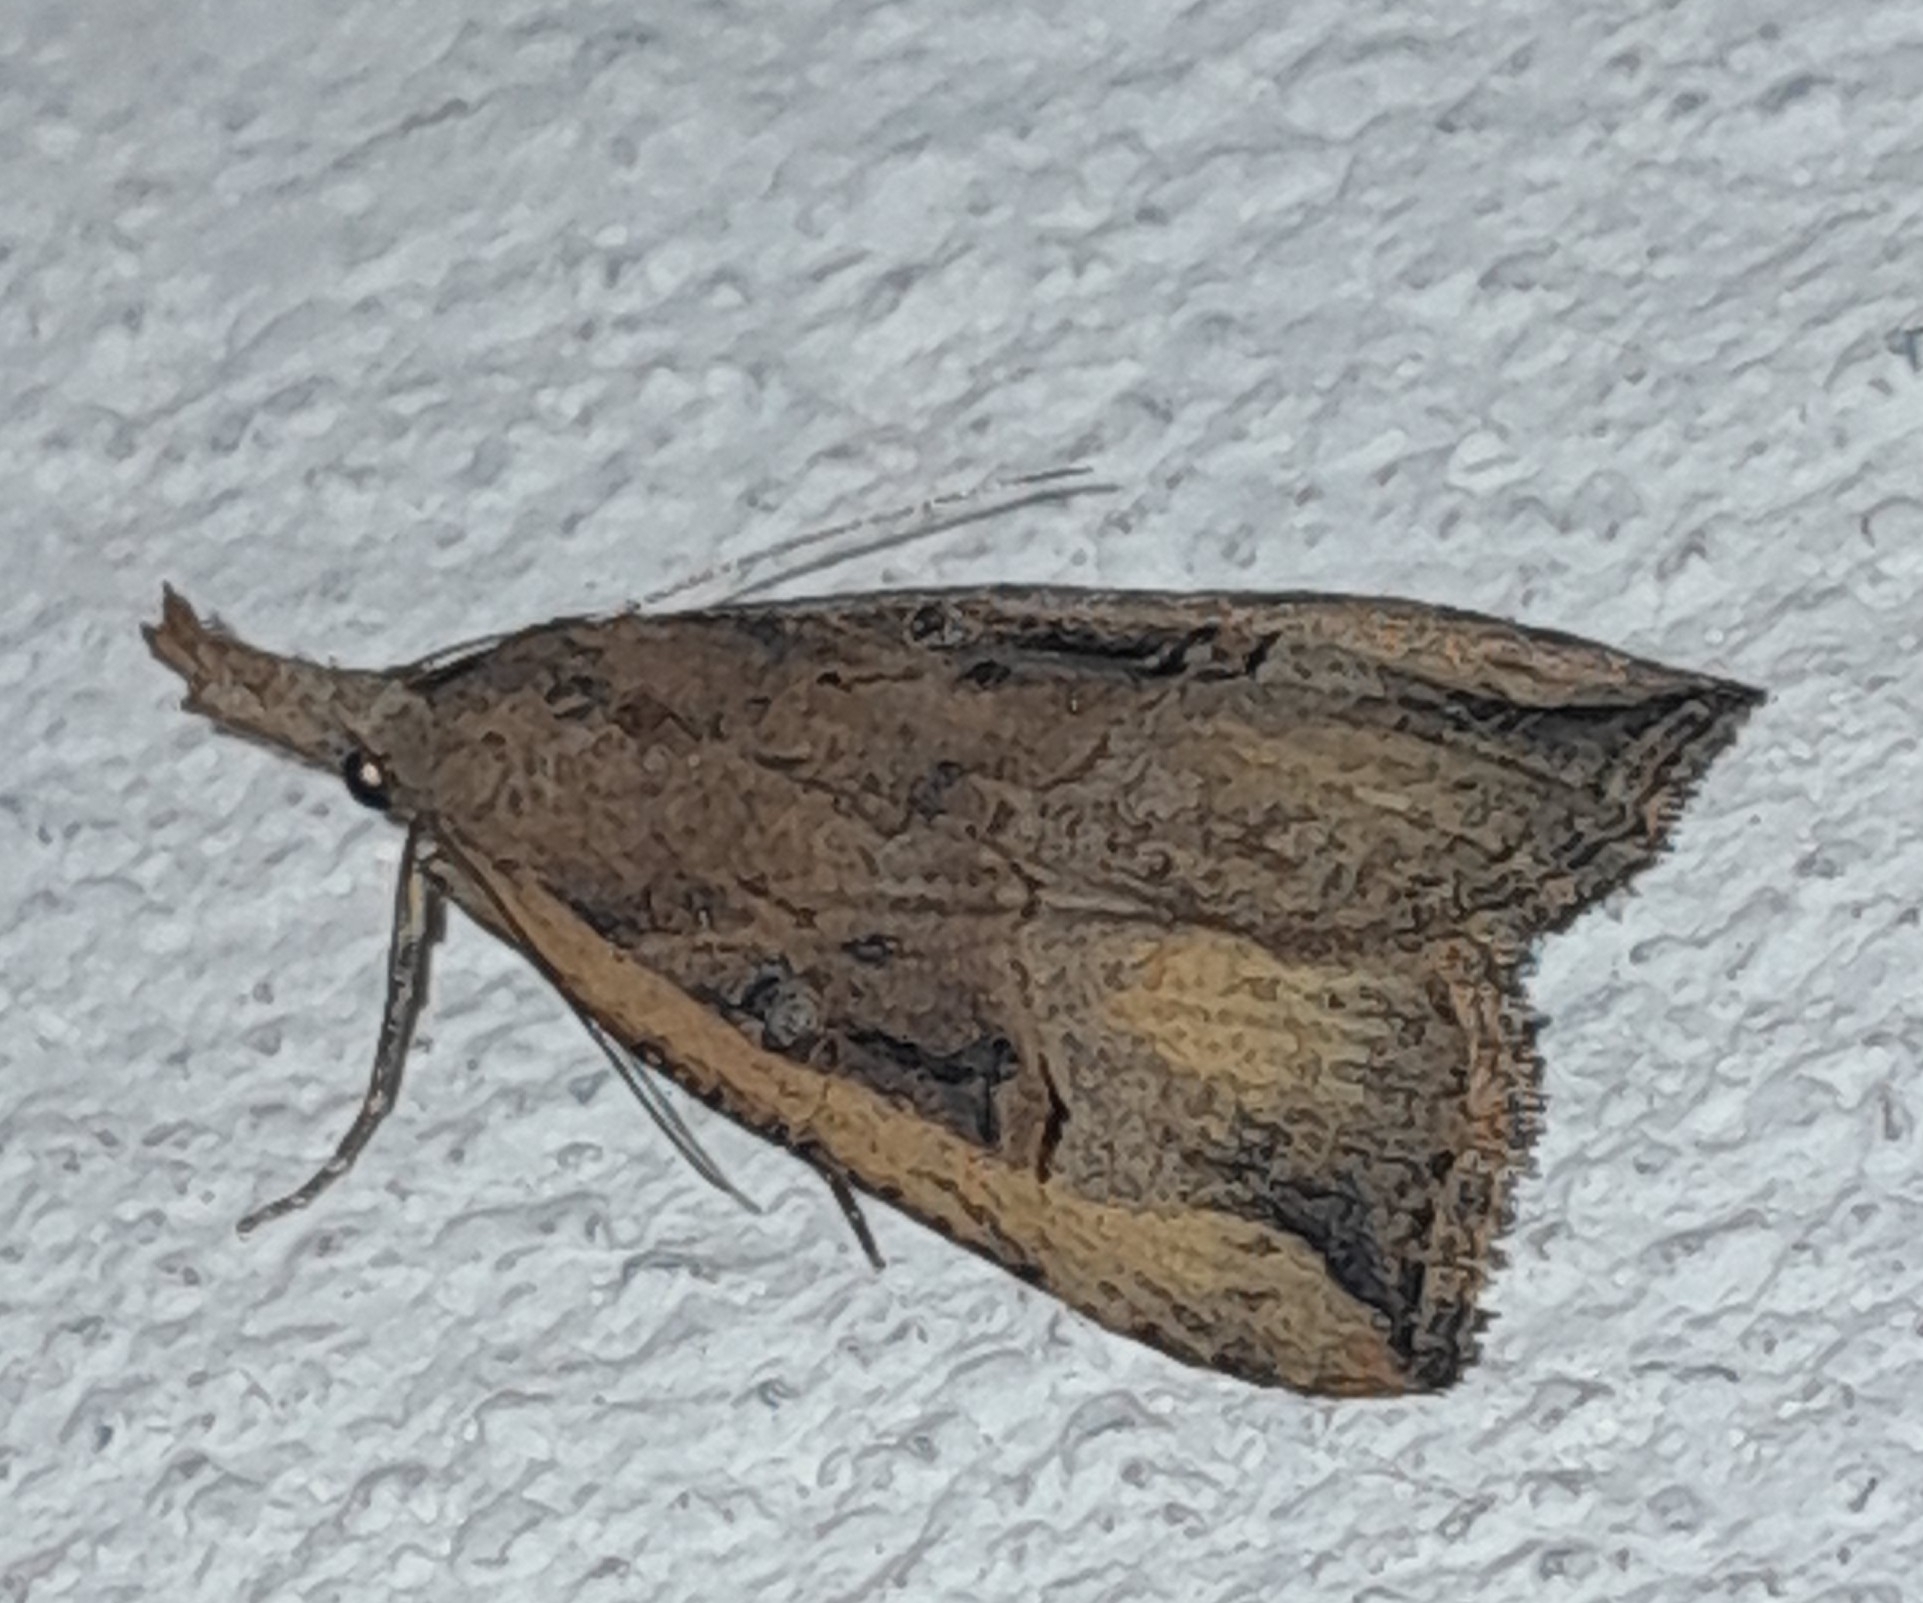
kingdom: Animalia
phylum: Arthropoda
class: Insecta
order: Lepidoptera
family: Erebidae
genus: Hypena
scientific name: Hypena rostralis
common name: Buttoned snout
